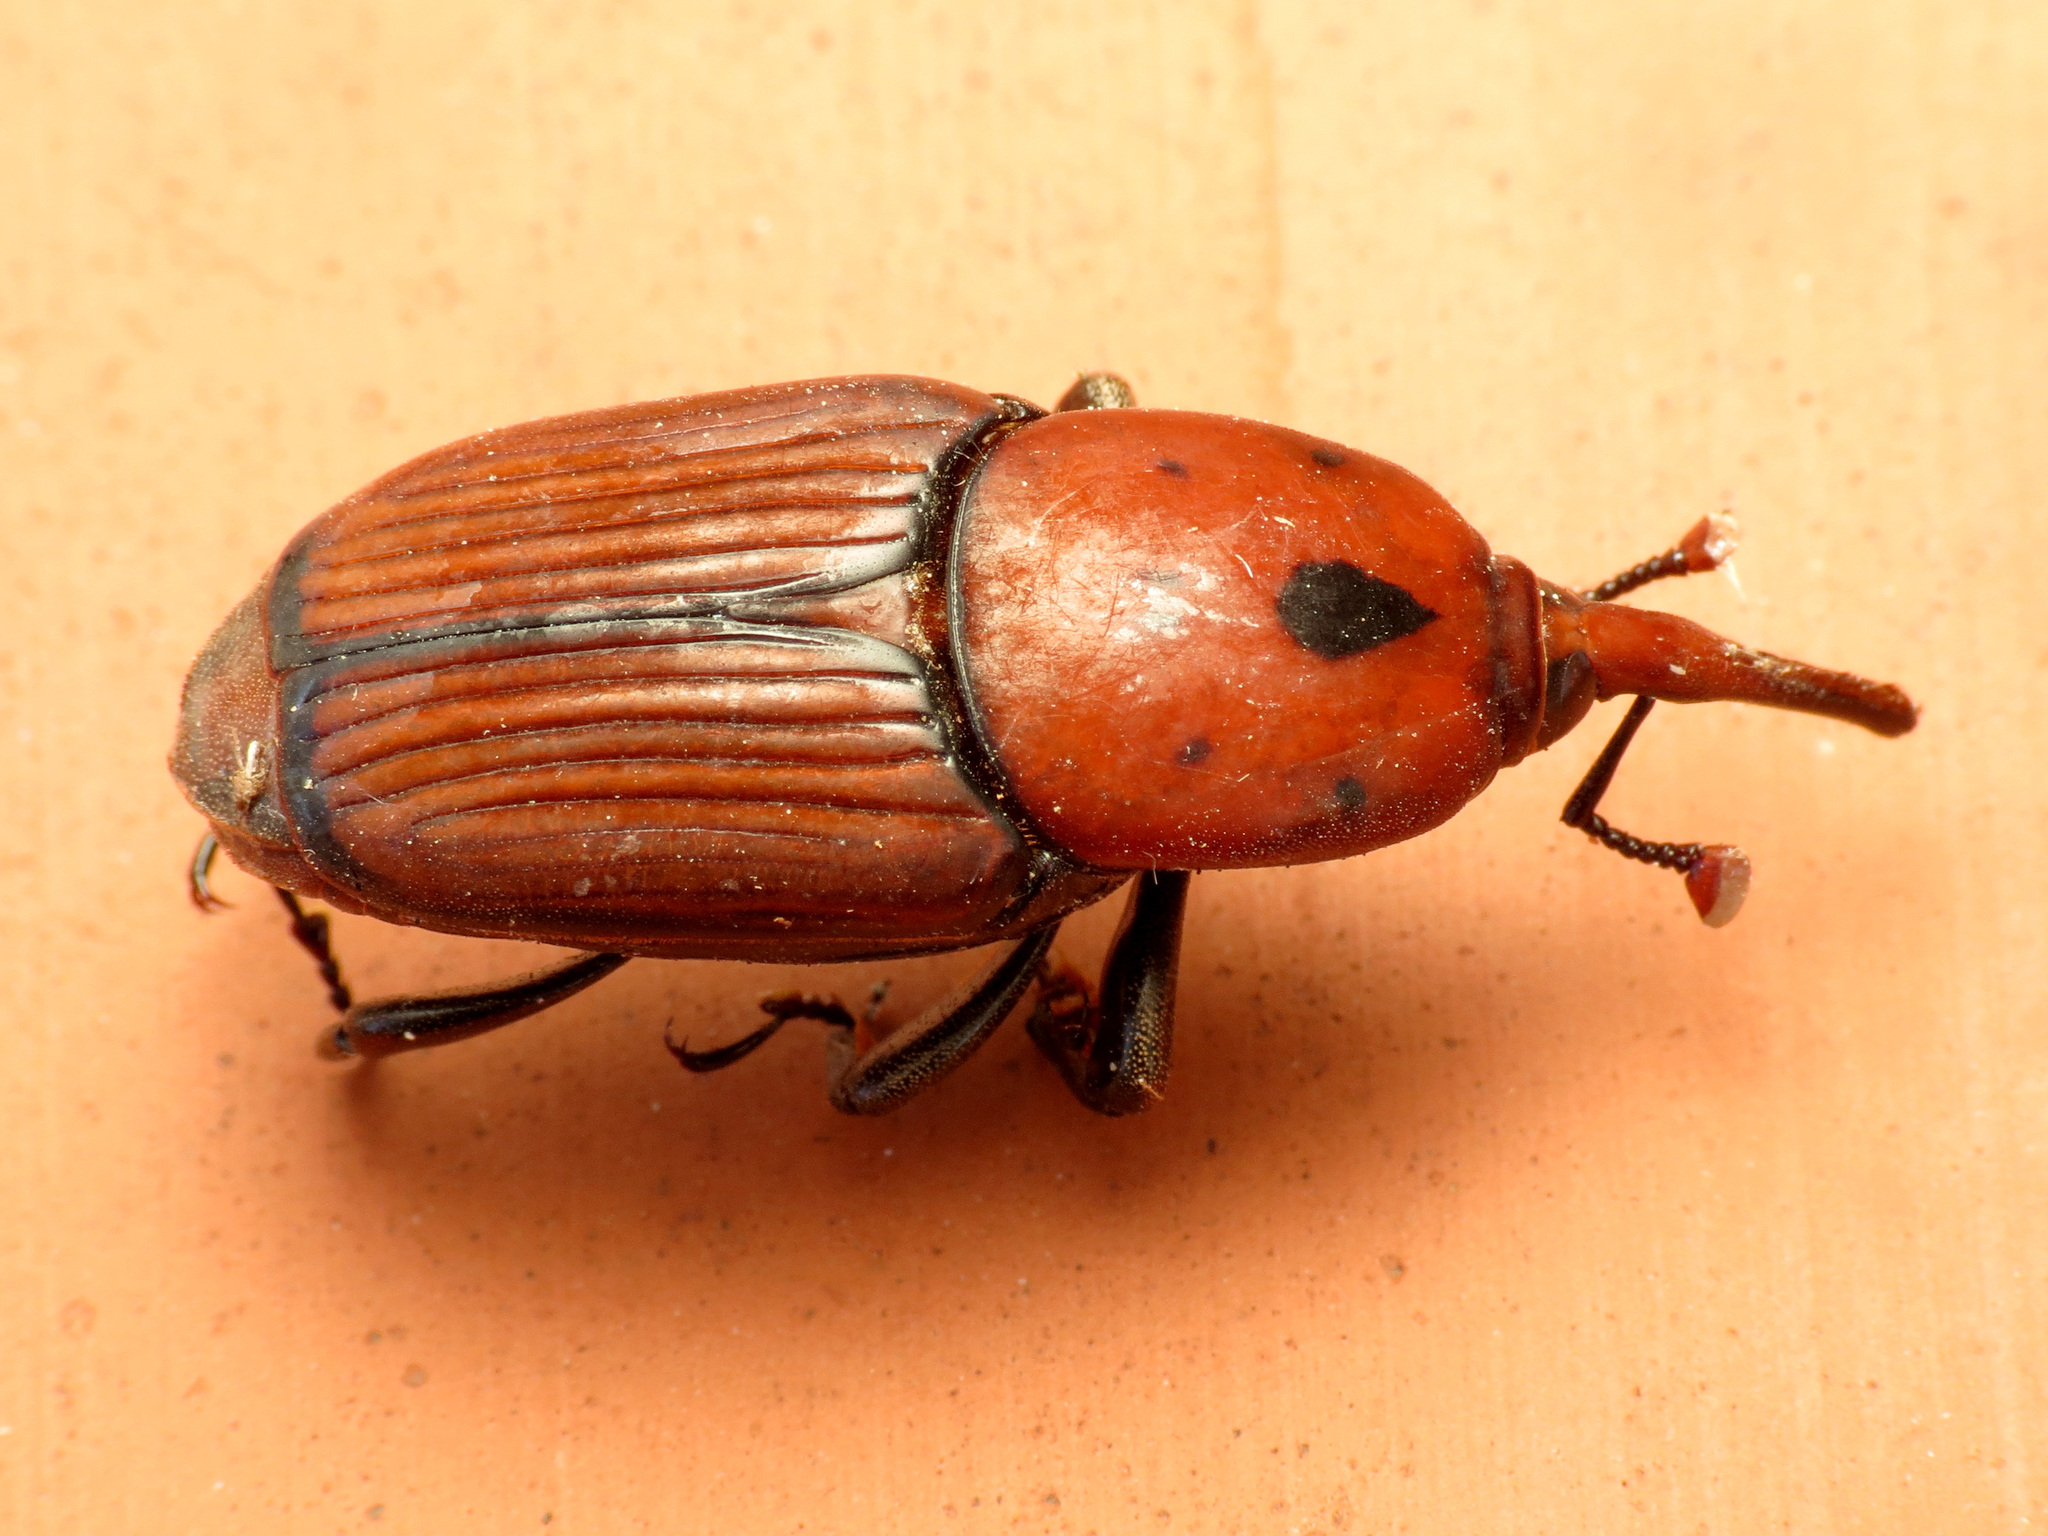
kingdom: Animalia
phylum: Arthropoda
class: Insecta
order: Coleoptera
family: Dryophthoridae
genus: Rhynchophorus
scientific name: Rhynchophorus ferrugineus
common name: Red palm weevil
